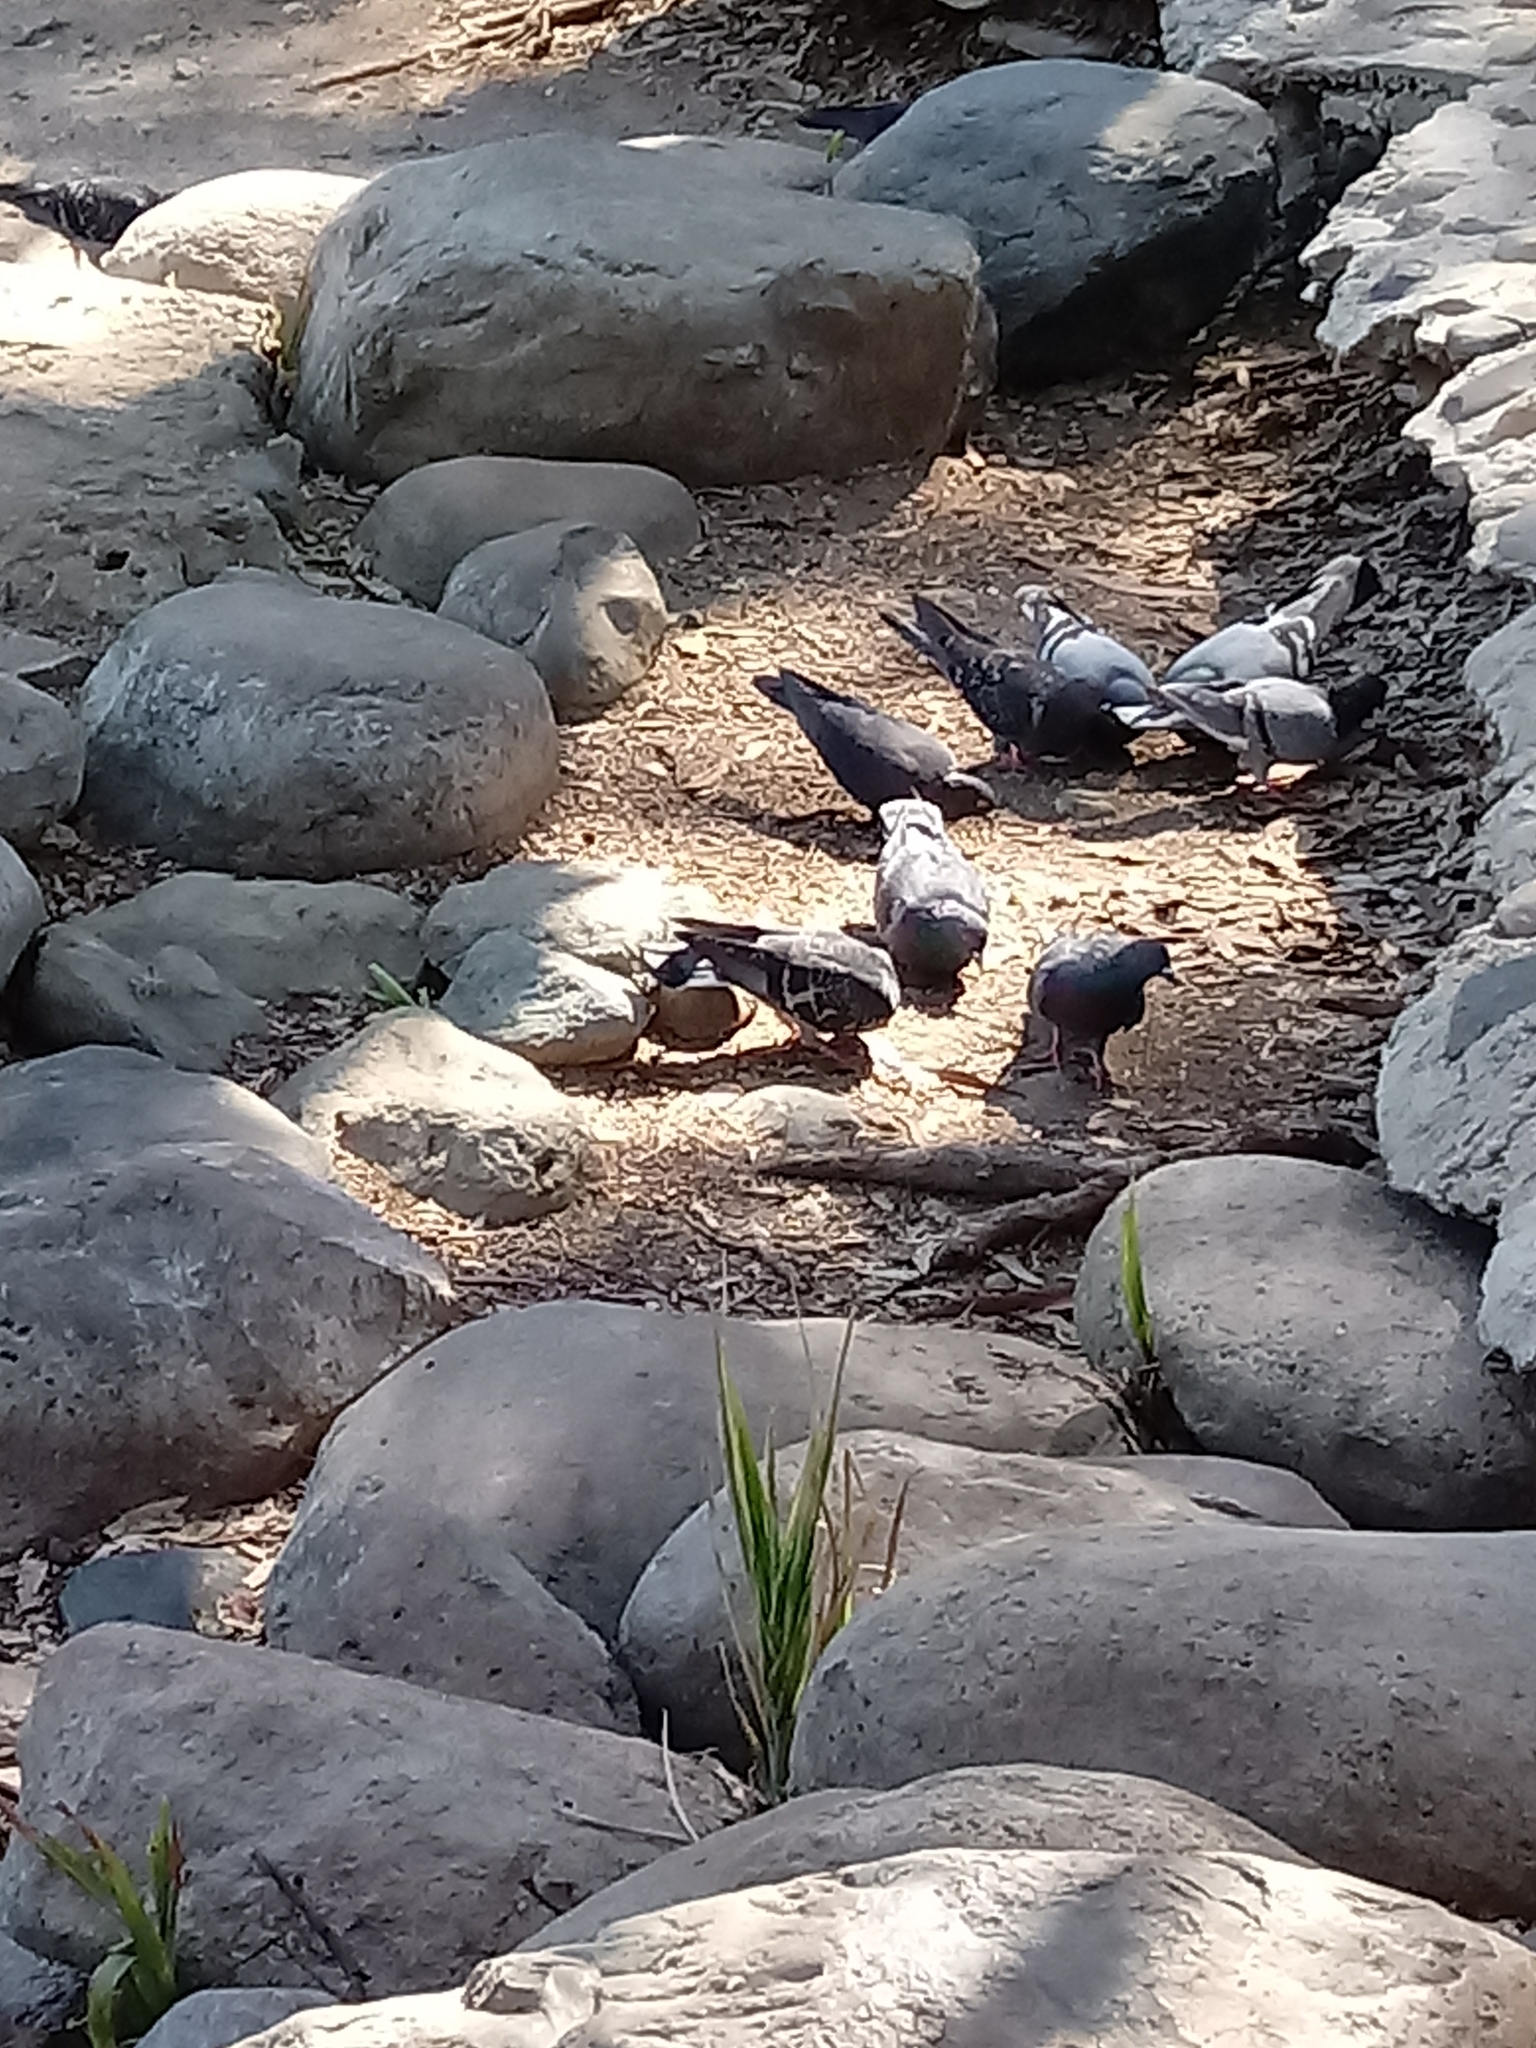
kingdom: Animalia
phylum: Chordata
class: Aves
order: Columbiformes
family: Columbidae
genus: Columba
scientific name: Columba livia
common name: Rock pigeon
